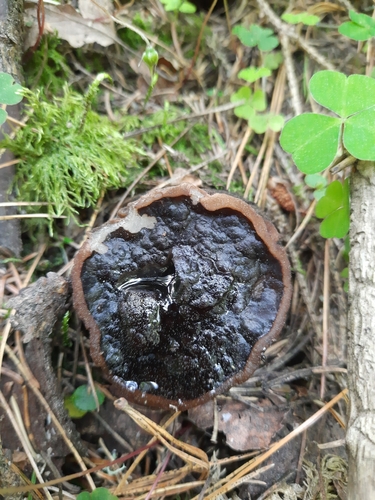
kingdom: Fungi
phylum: Ascomycota
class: Pezizomycetes
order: Pezizales
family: Sarcosomataceae
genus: Sarcosoma
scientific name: Sarcosoma globosum
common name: Charred-pancake cup
